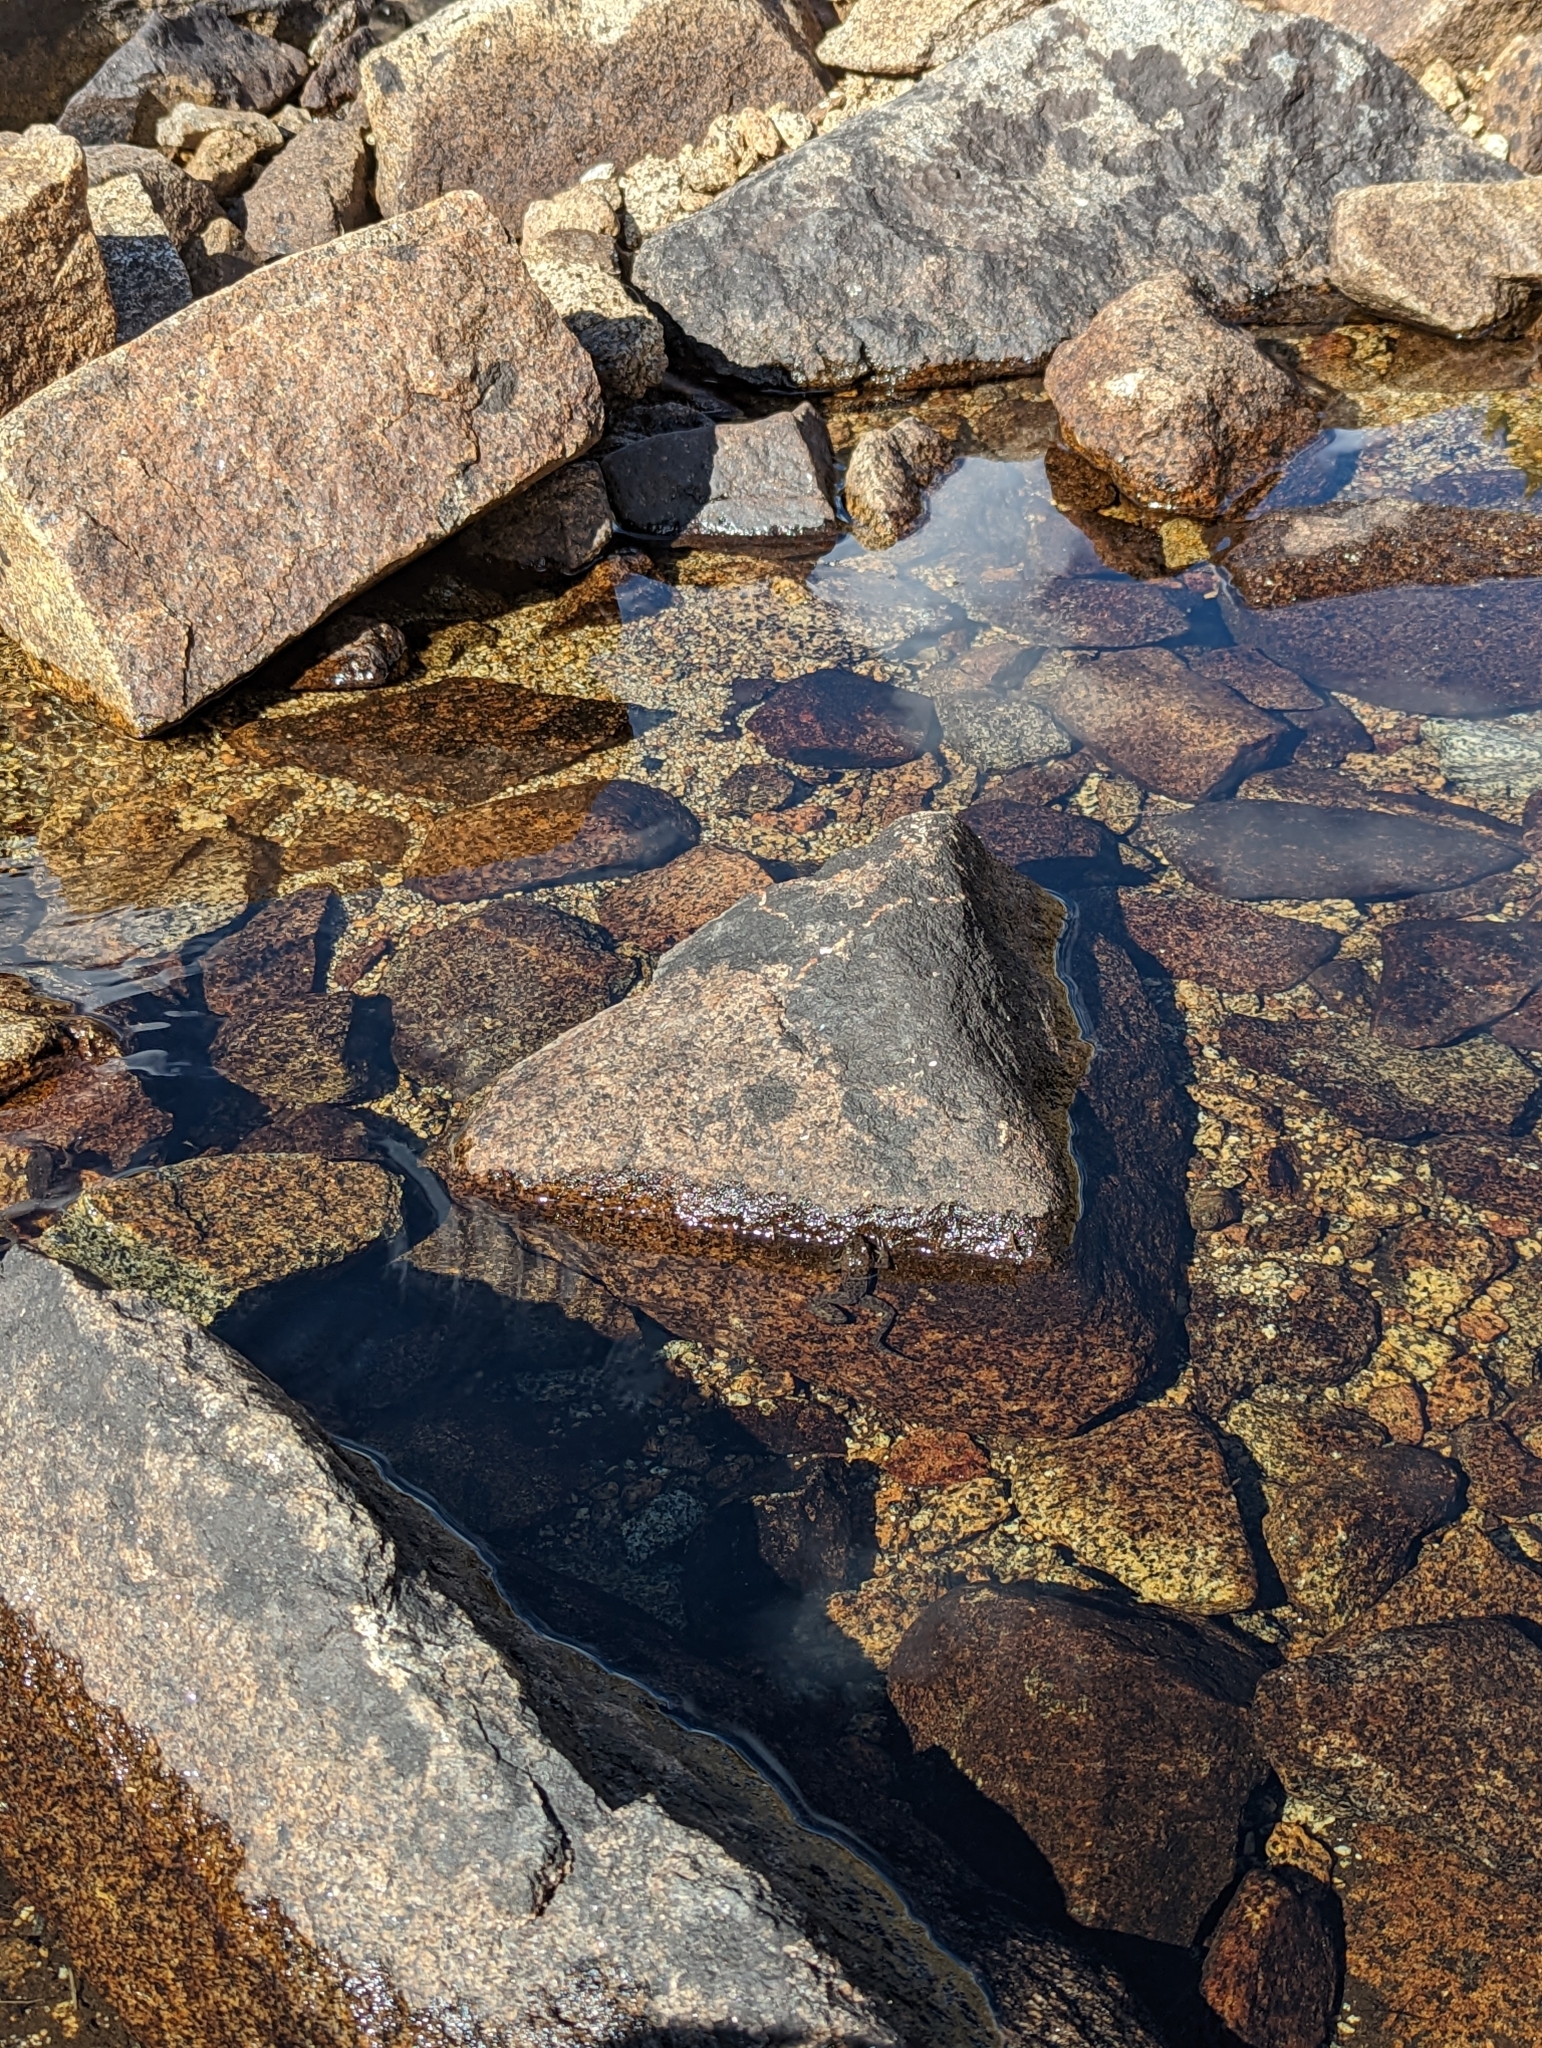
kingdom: Animalia
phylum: Chordata
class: Amphibia
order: Anura
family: Ranidae
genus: Rana
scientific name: Rana sierrae
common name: Sierra nevada yellow-legged frog
